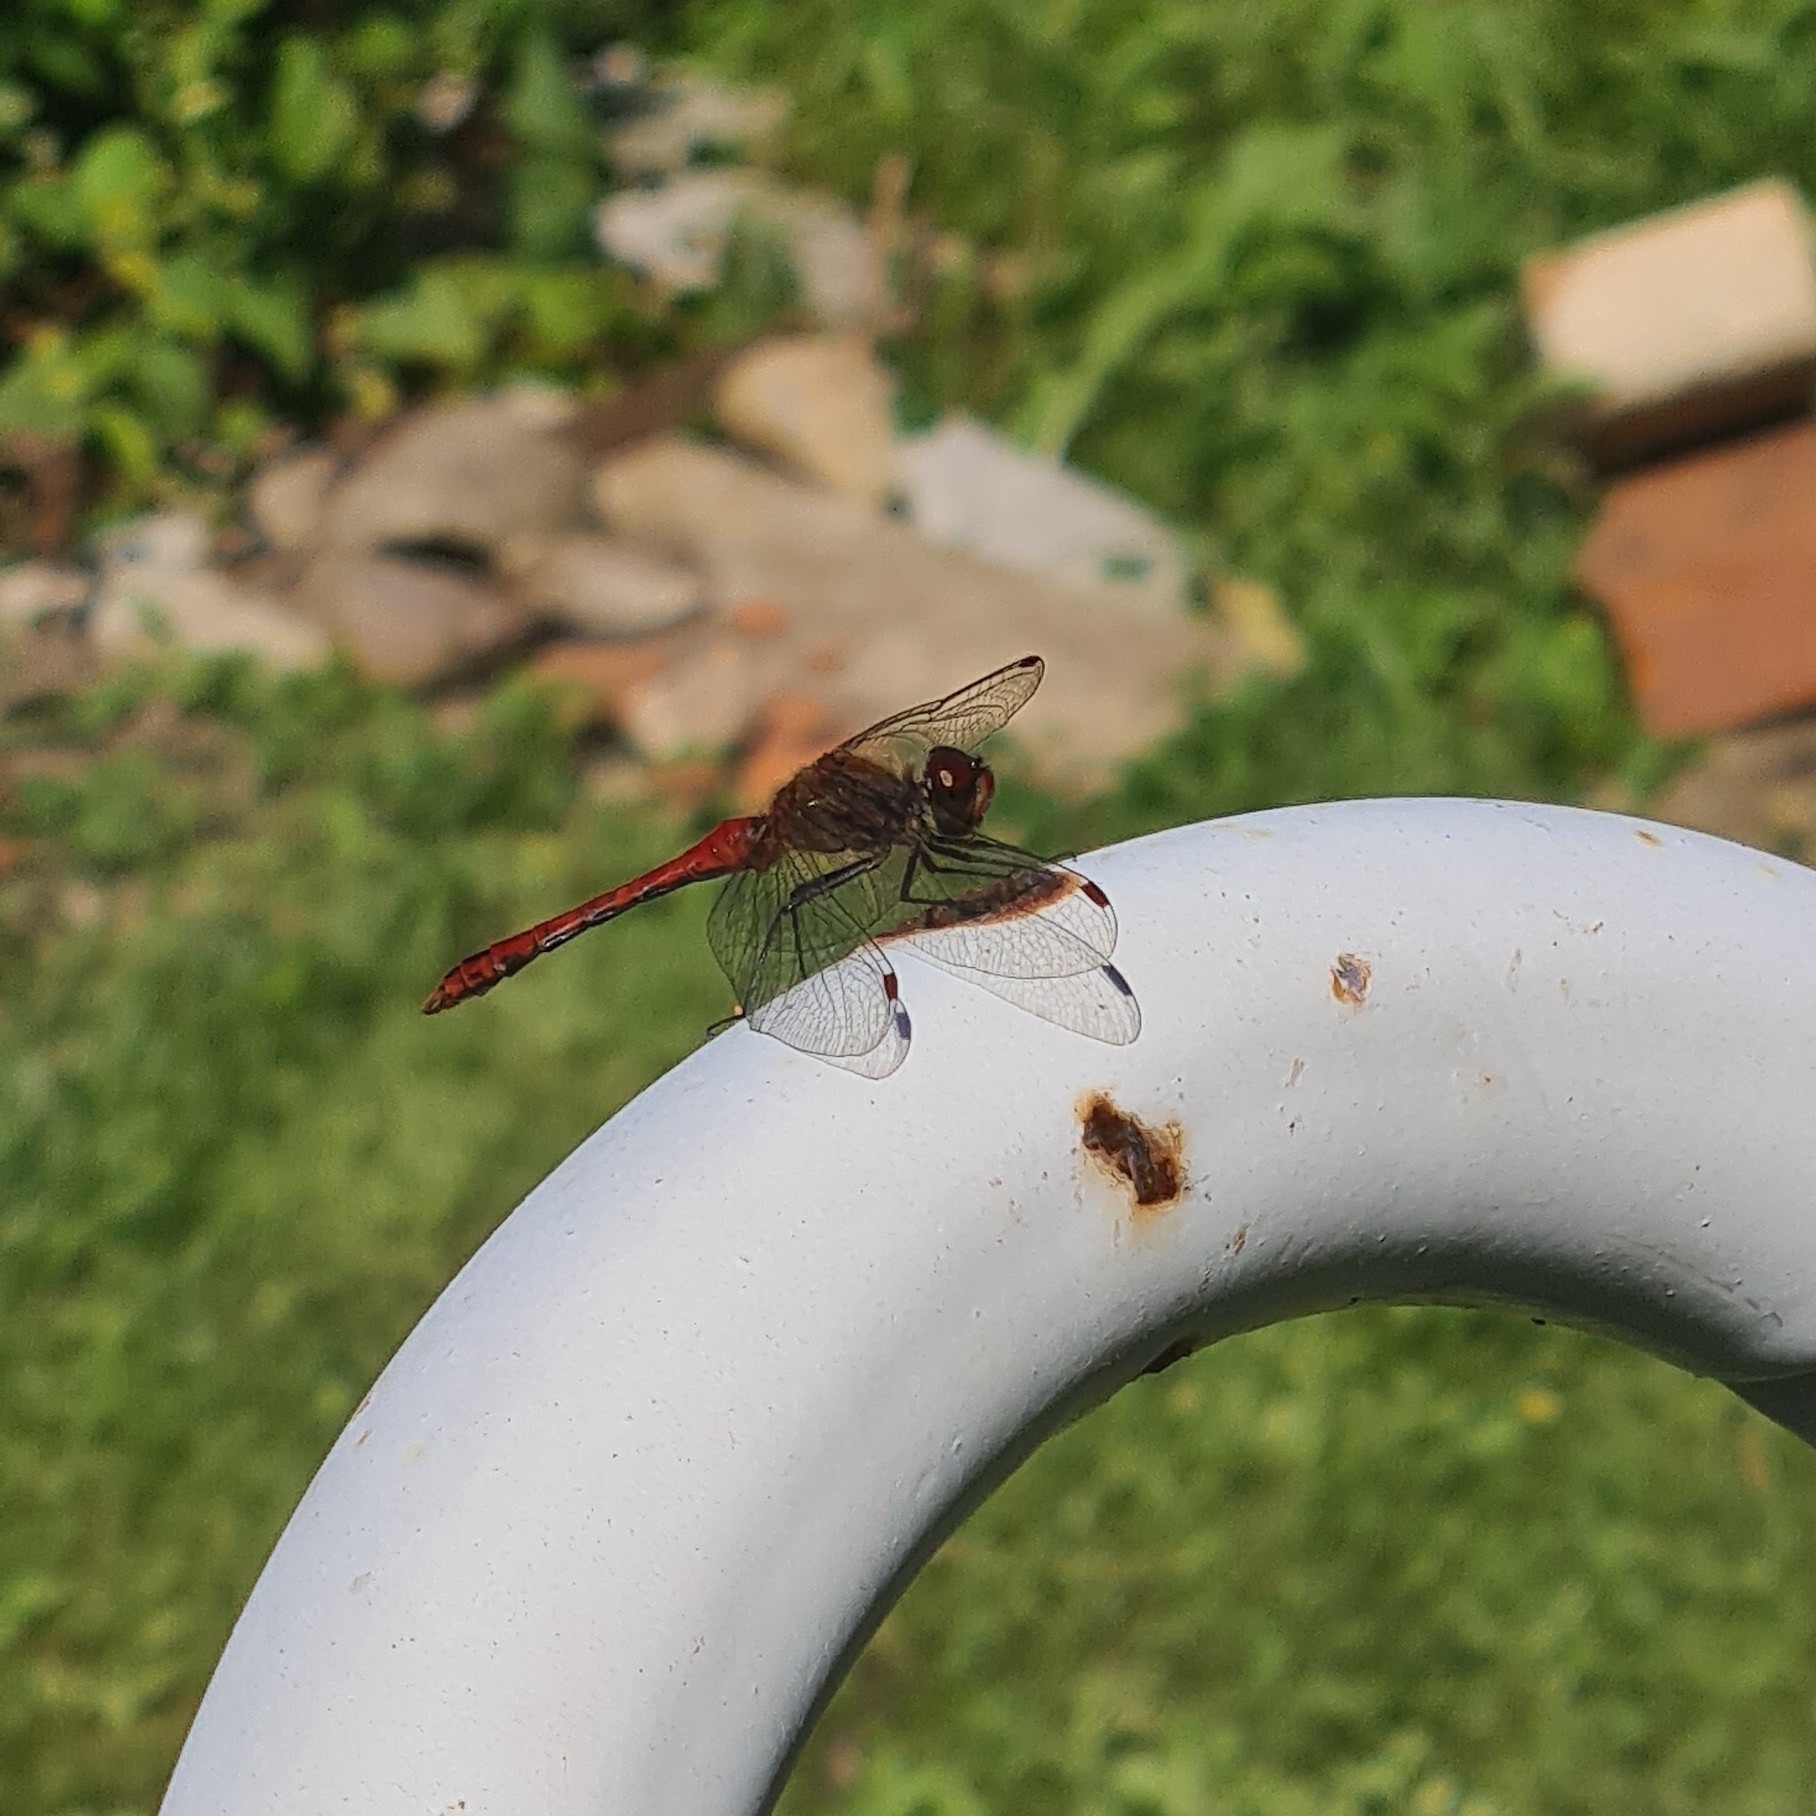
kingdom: Animalia
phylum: Arthropoda
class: Insecta
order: Odonata
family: Libellulidae
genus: Sympetrum
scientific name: Sympetrum sanguineum
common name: Ruddy darter
